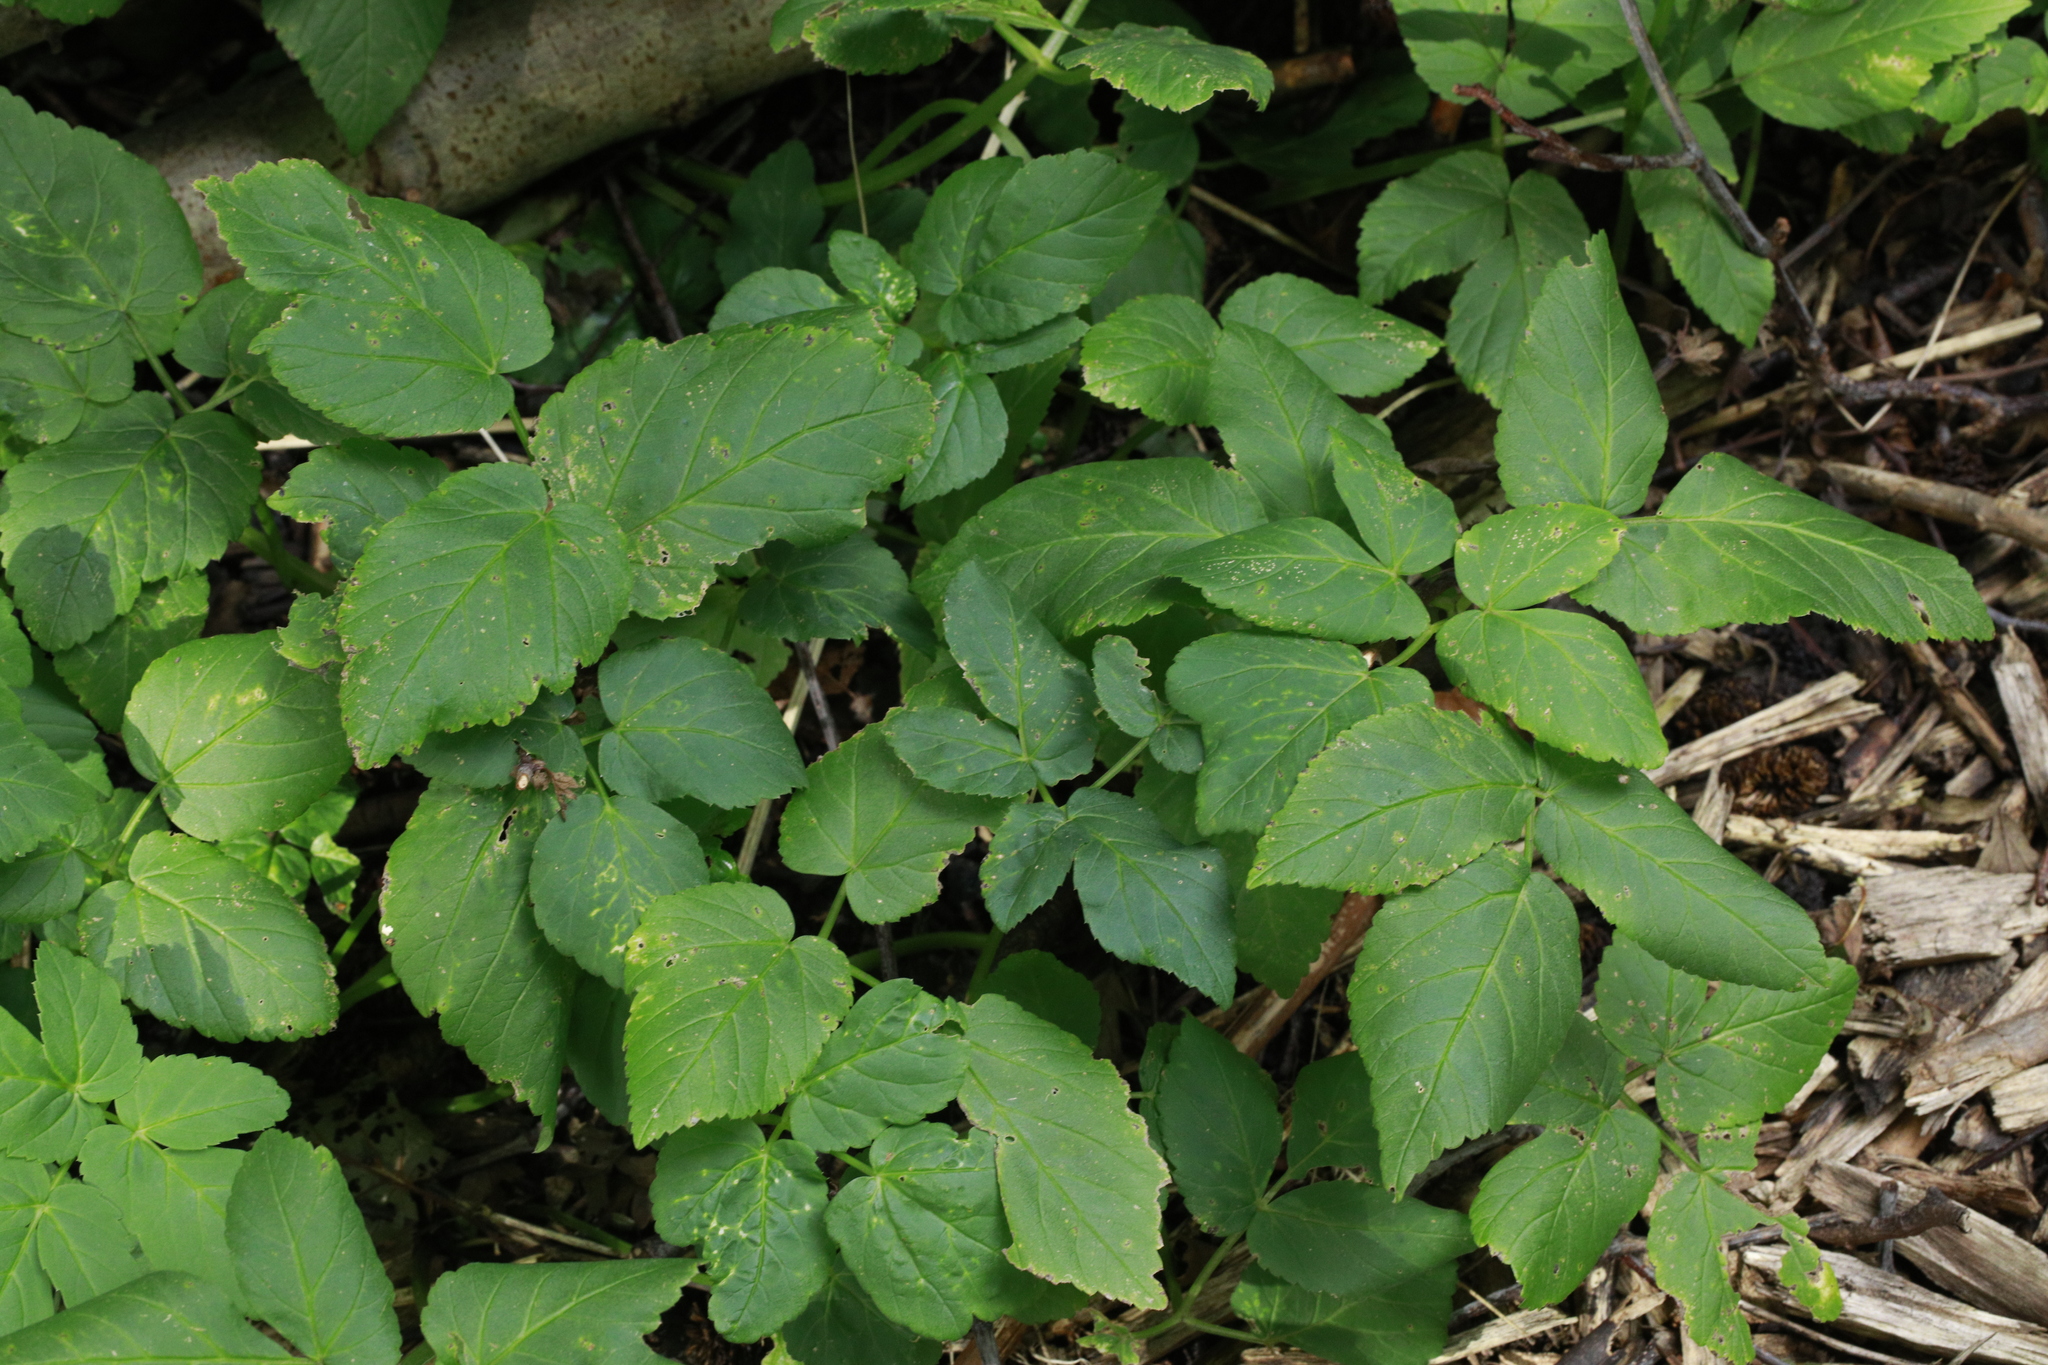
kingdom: Plantae
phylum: Tracheophyta
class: Magnoliopsida
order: Apiales
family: Apiaceae
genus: Aegopodium
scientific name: Aegopodium podagraria
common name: Ground-elder
